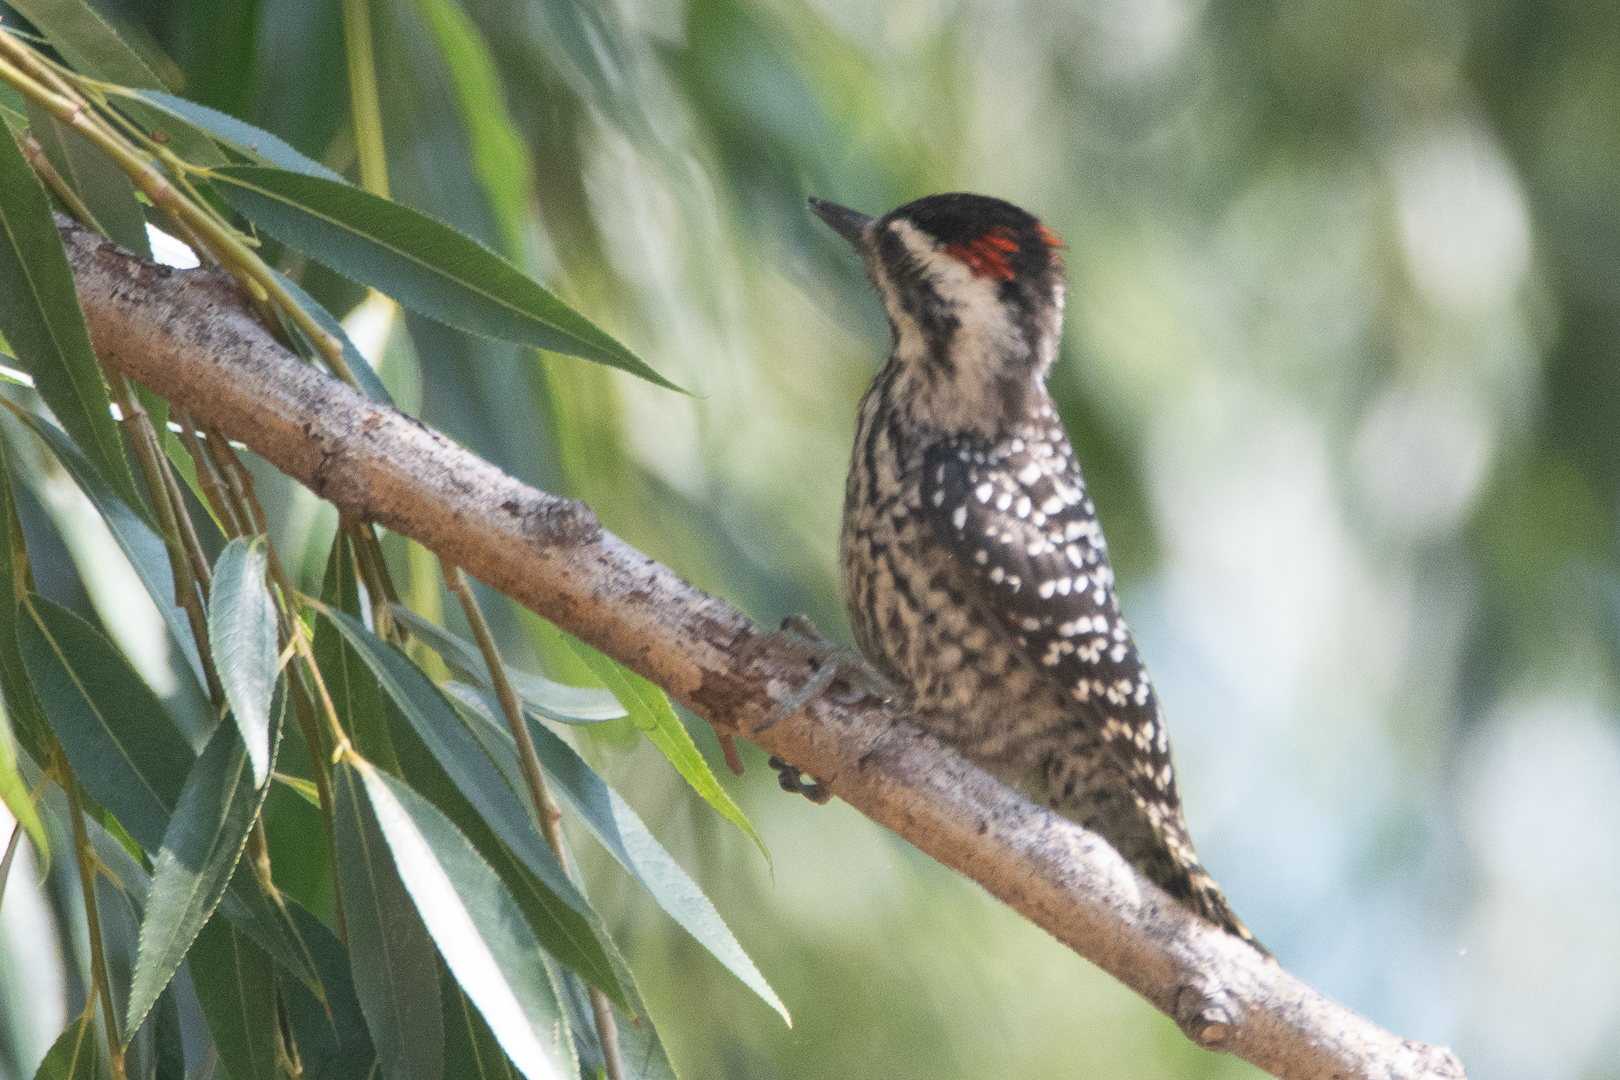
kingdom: Animalia
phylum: Chordata
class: Aves
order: Piciformes
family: Picidae
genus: Veniliornis
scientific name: Veniliornis lignarius
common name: Striped woodpecker
